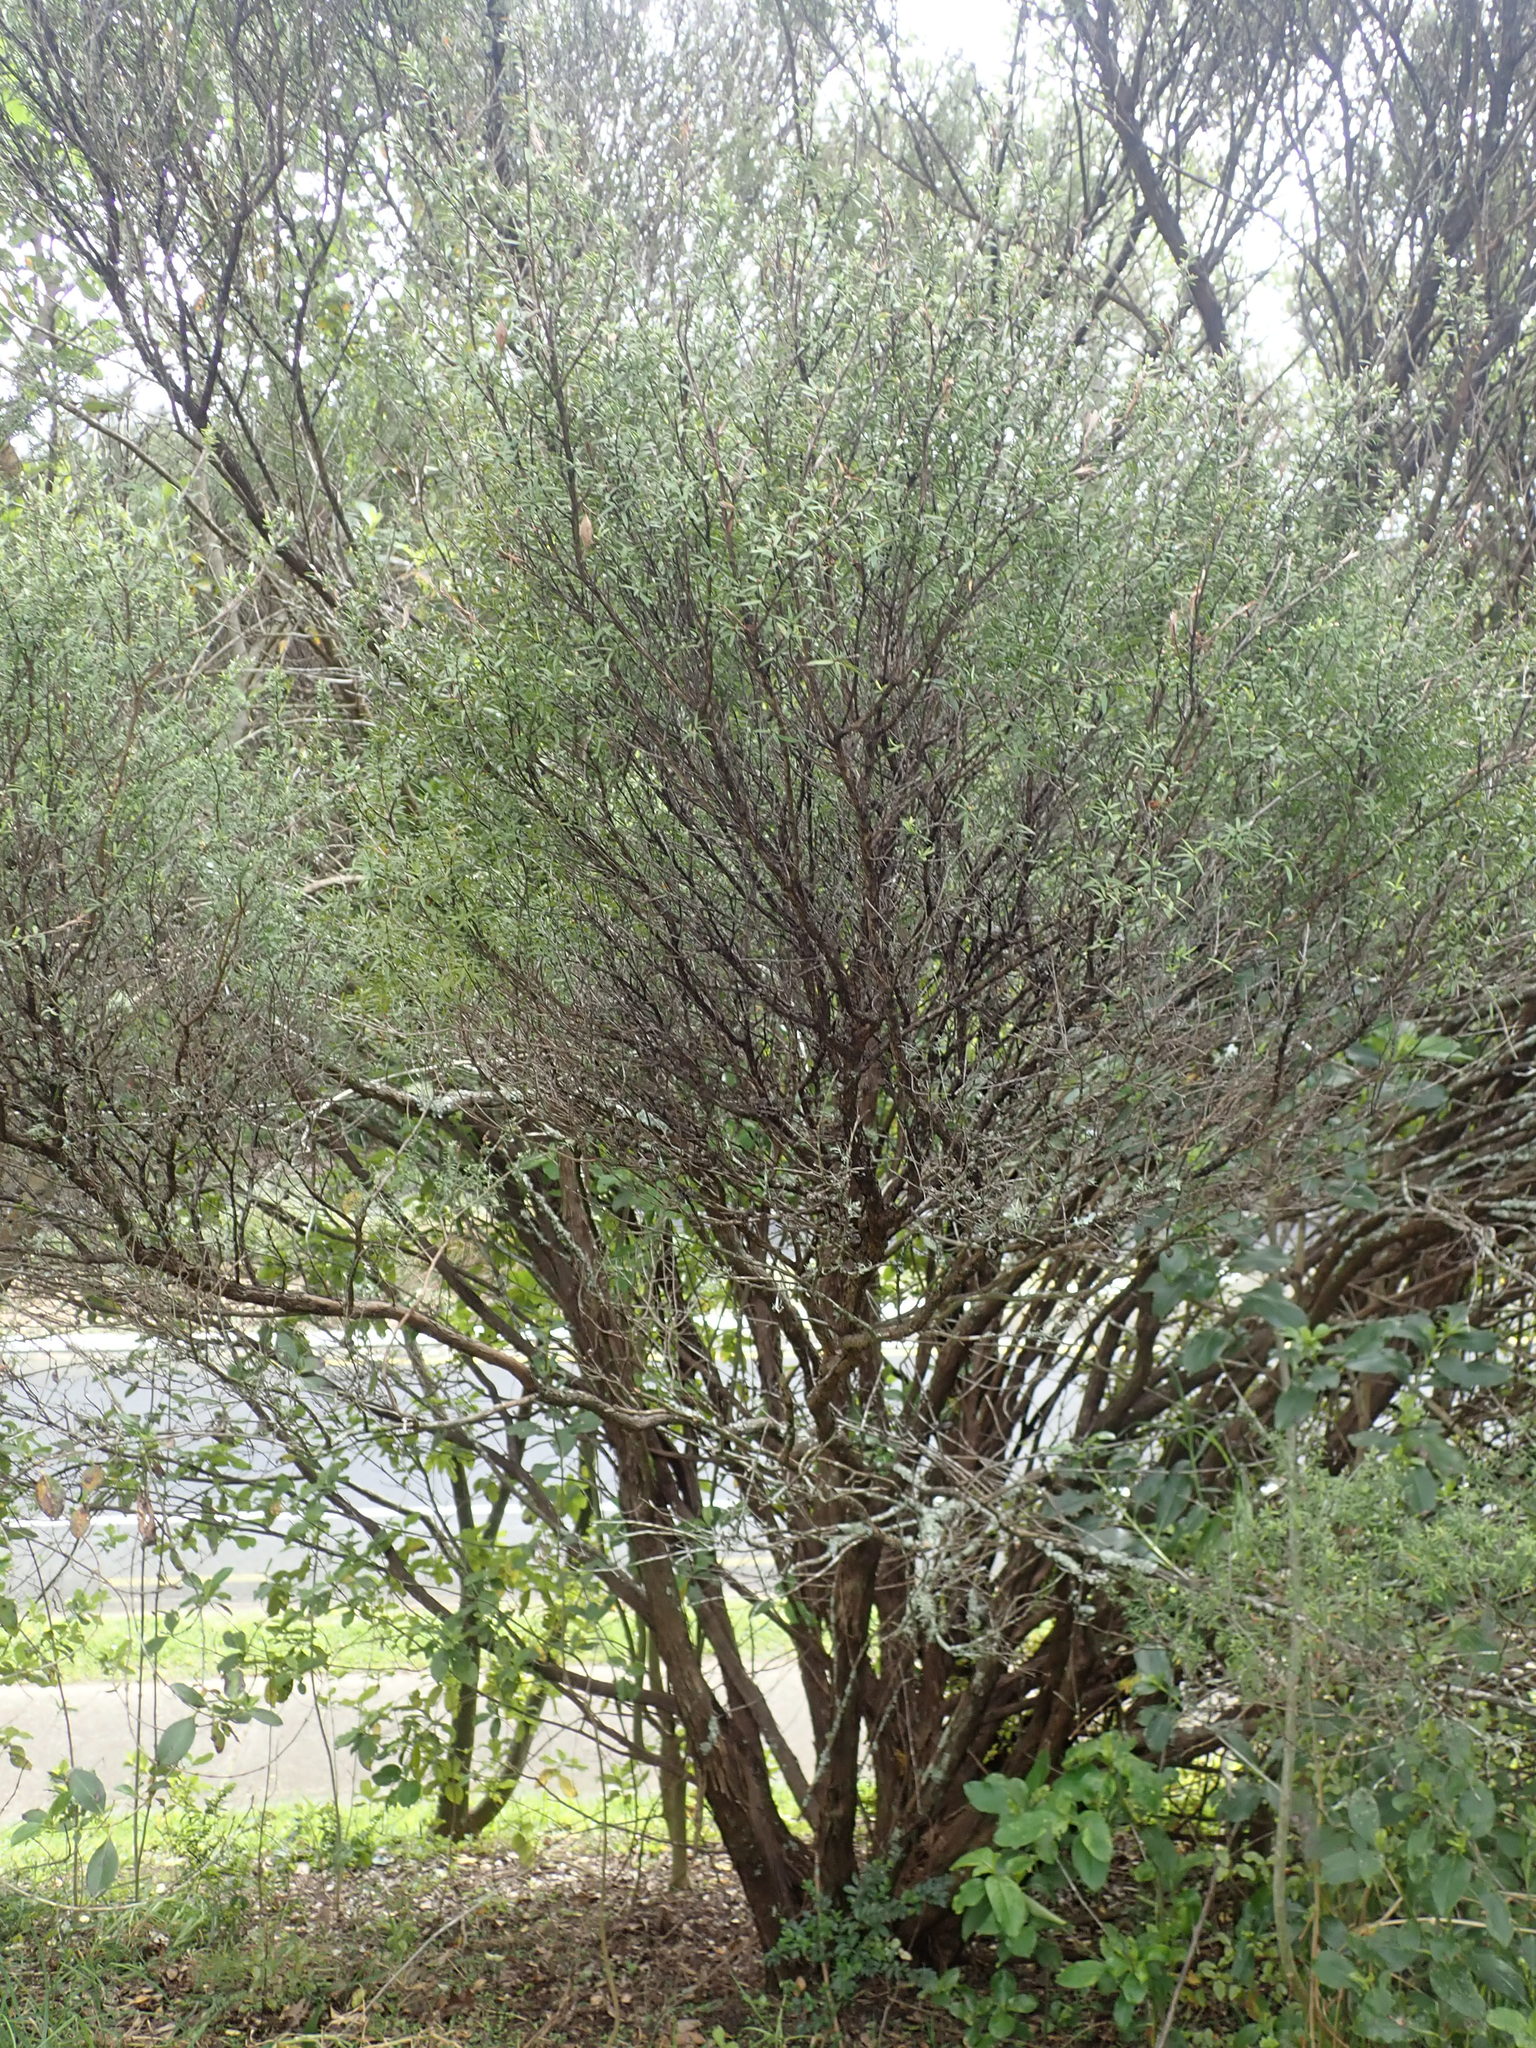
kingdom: Plantae
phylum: Tracheophyta
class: Magnoliopsida
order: Myrtales
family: Myrtaceae
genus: Leptospermum
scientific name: Leptospermum scoparium
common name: Broom tea-tree
